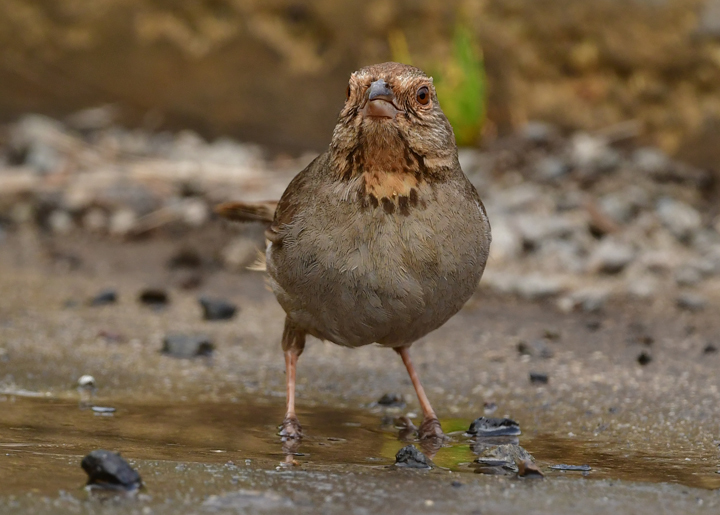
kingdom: Animalia
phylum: Chordata
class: Aves
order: Passeriformes
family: Passerellidae
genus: Melozone
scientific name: Melozone crissalis
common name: California towhee
